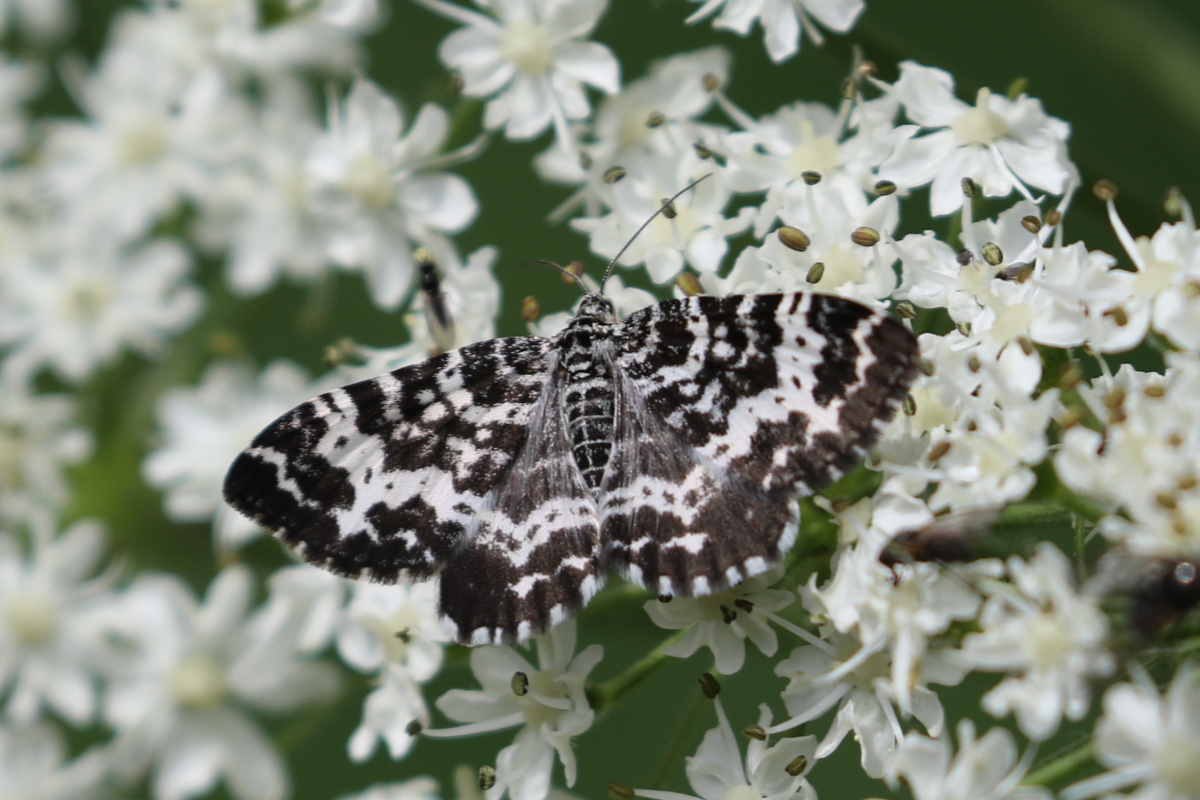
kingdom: Animalia
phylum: Arthropoda
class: Insecta
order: Lepidoptera
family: Geometridae
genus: Rheumaptera
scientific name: Rheumaptera
